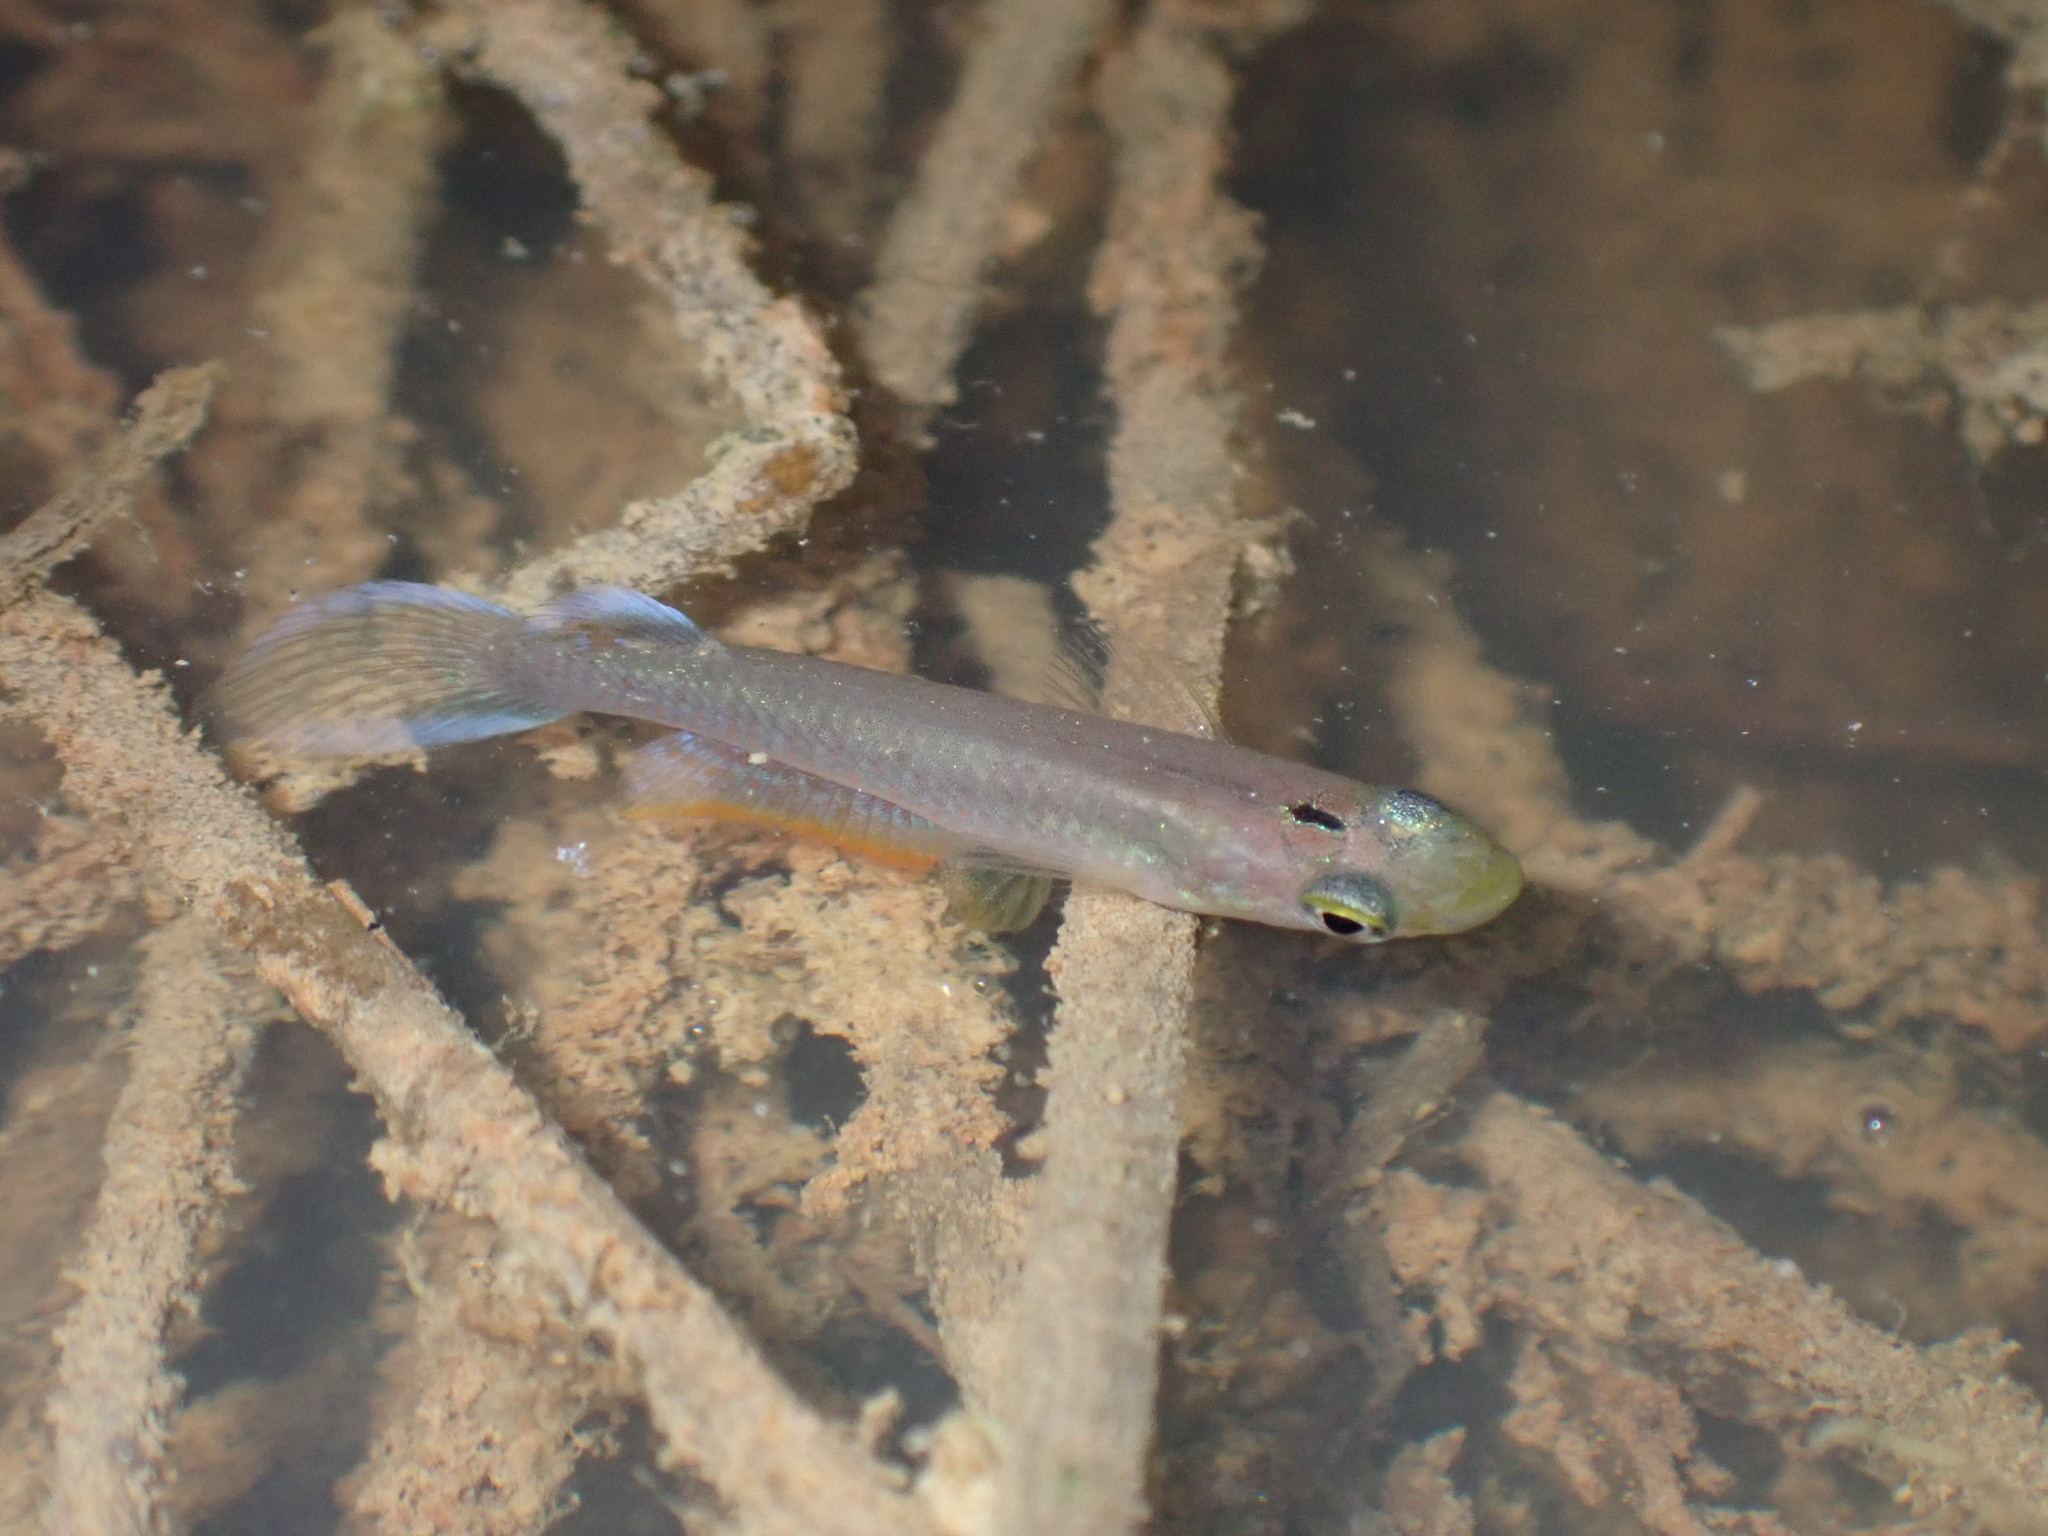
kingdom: Animalia
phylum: Chordata
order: Cyprinodontiformes
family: Aplocheilidae
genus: Aplocheilus
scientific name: Aplocheilus panchax
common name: Blue panchax
